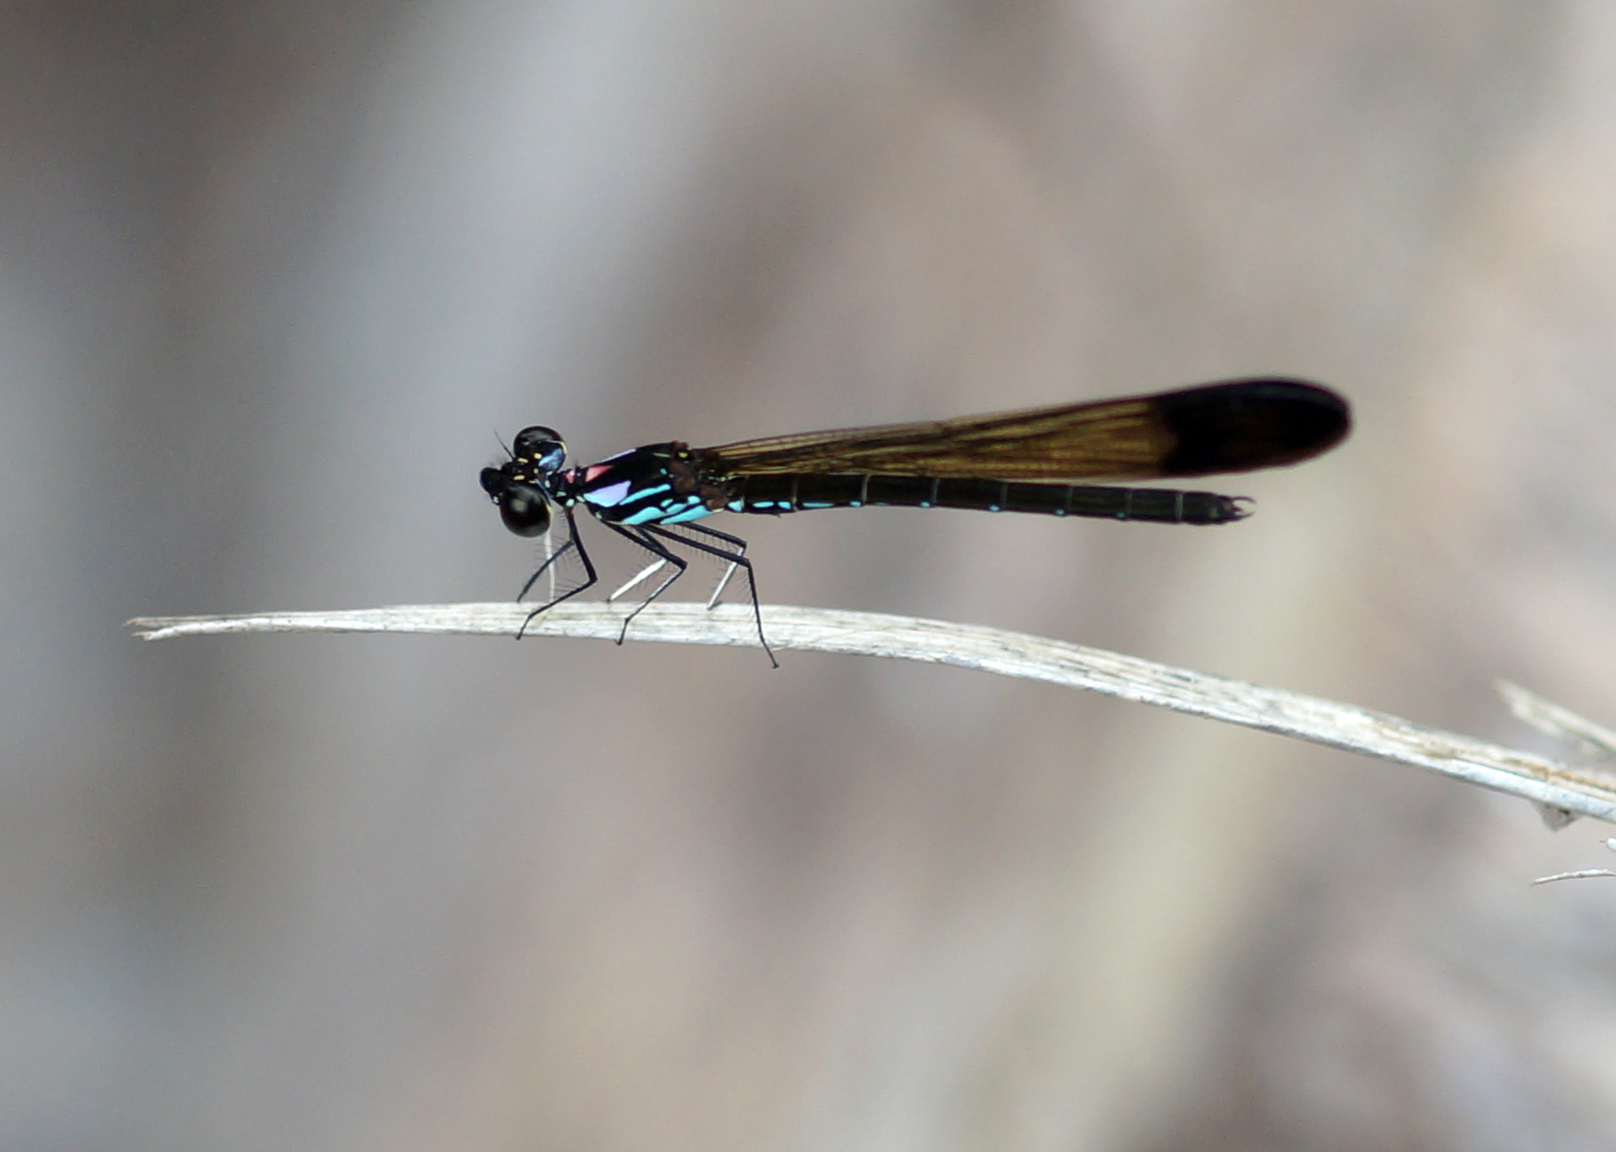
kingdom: Animalia
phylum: Arthropoda
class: Insecta
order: Odonata
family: Chlorocyphidae
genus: Heliocypha
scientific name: Heliocypha biforata
